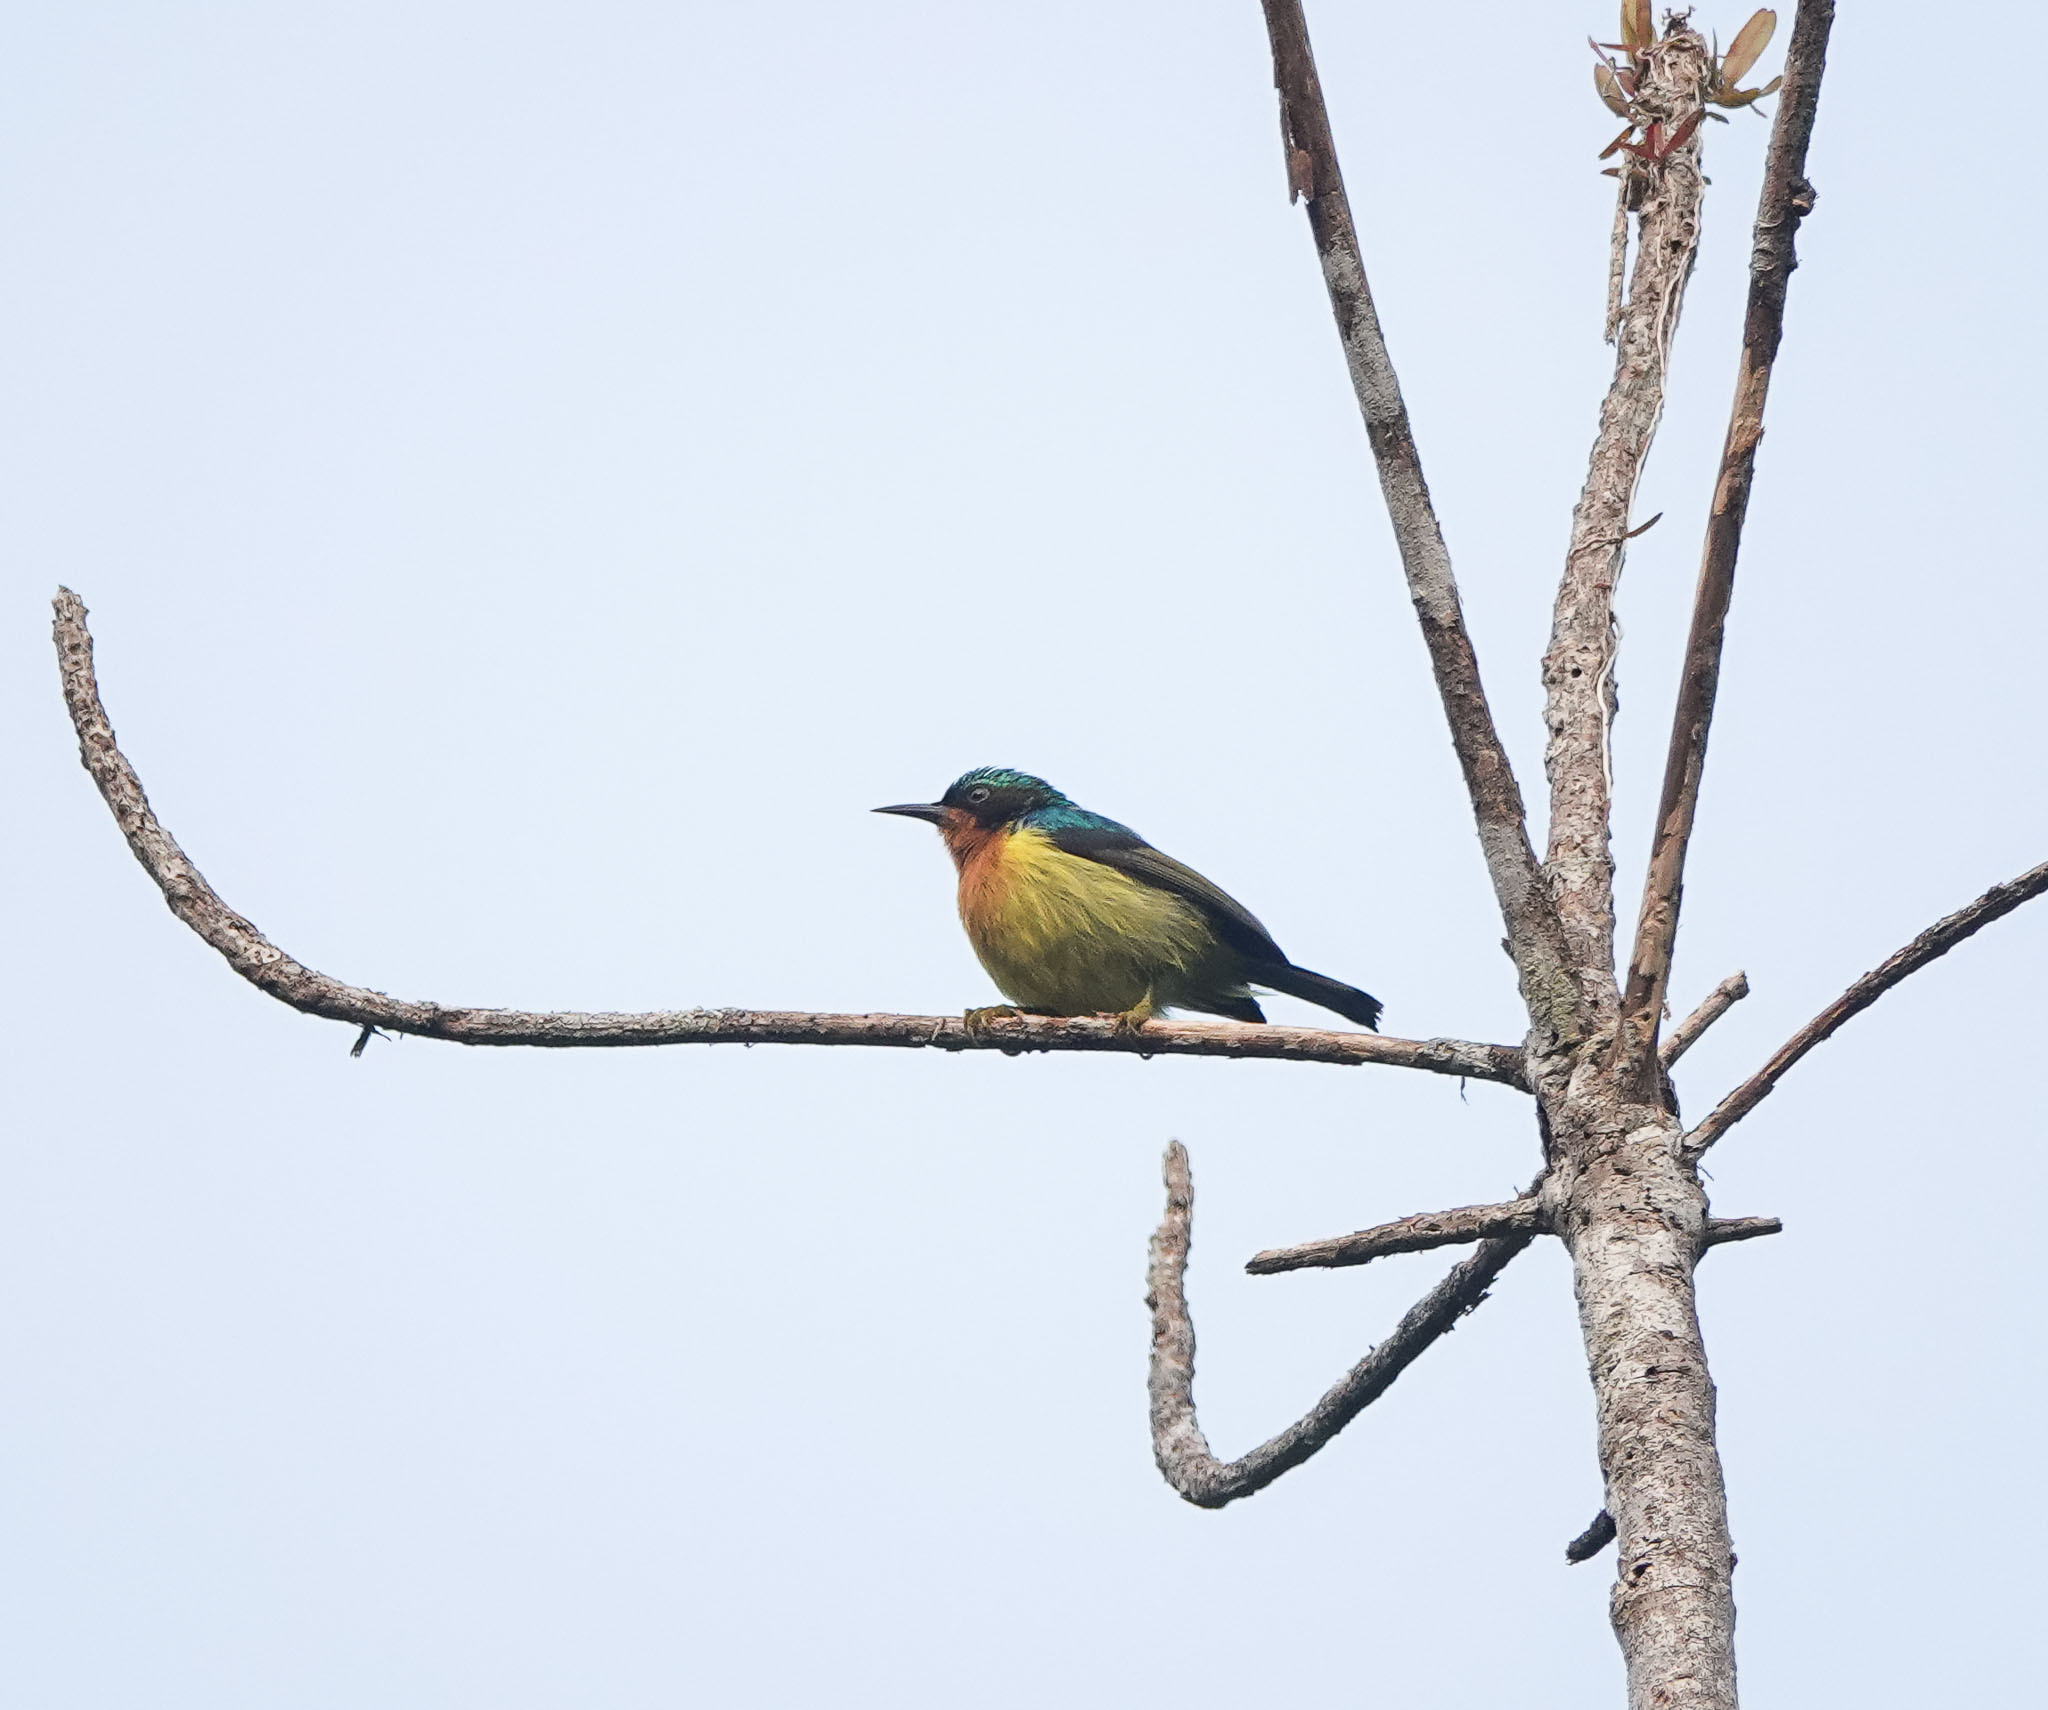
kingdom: Animalia
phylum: Chordata
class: Aves
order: Passeriformes
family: Nectariniidae
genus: Chalcoparia
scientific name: Chalcoparia singalensis
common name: Ruby-cheeked sunbird
